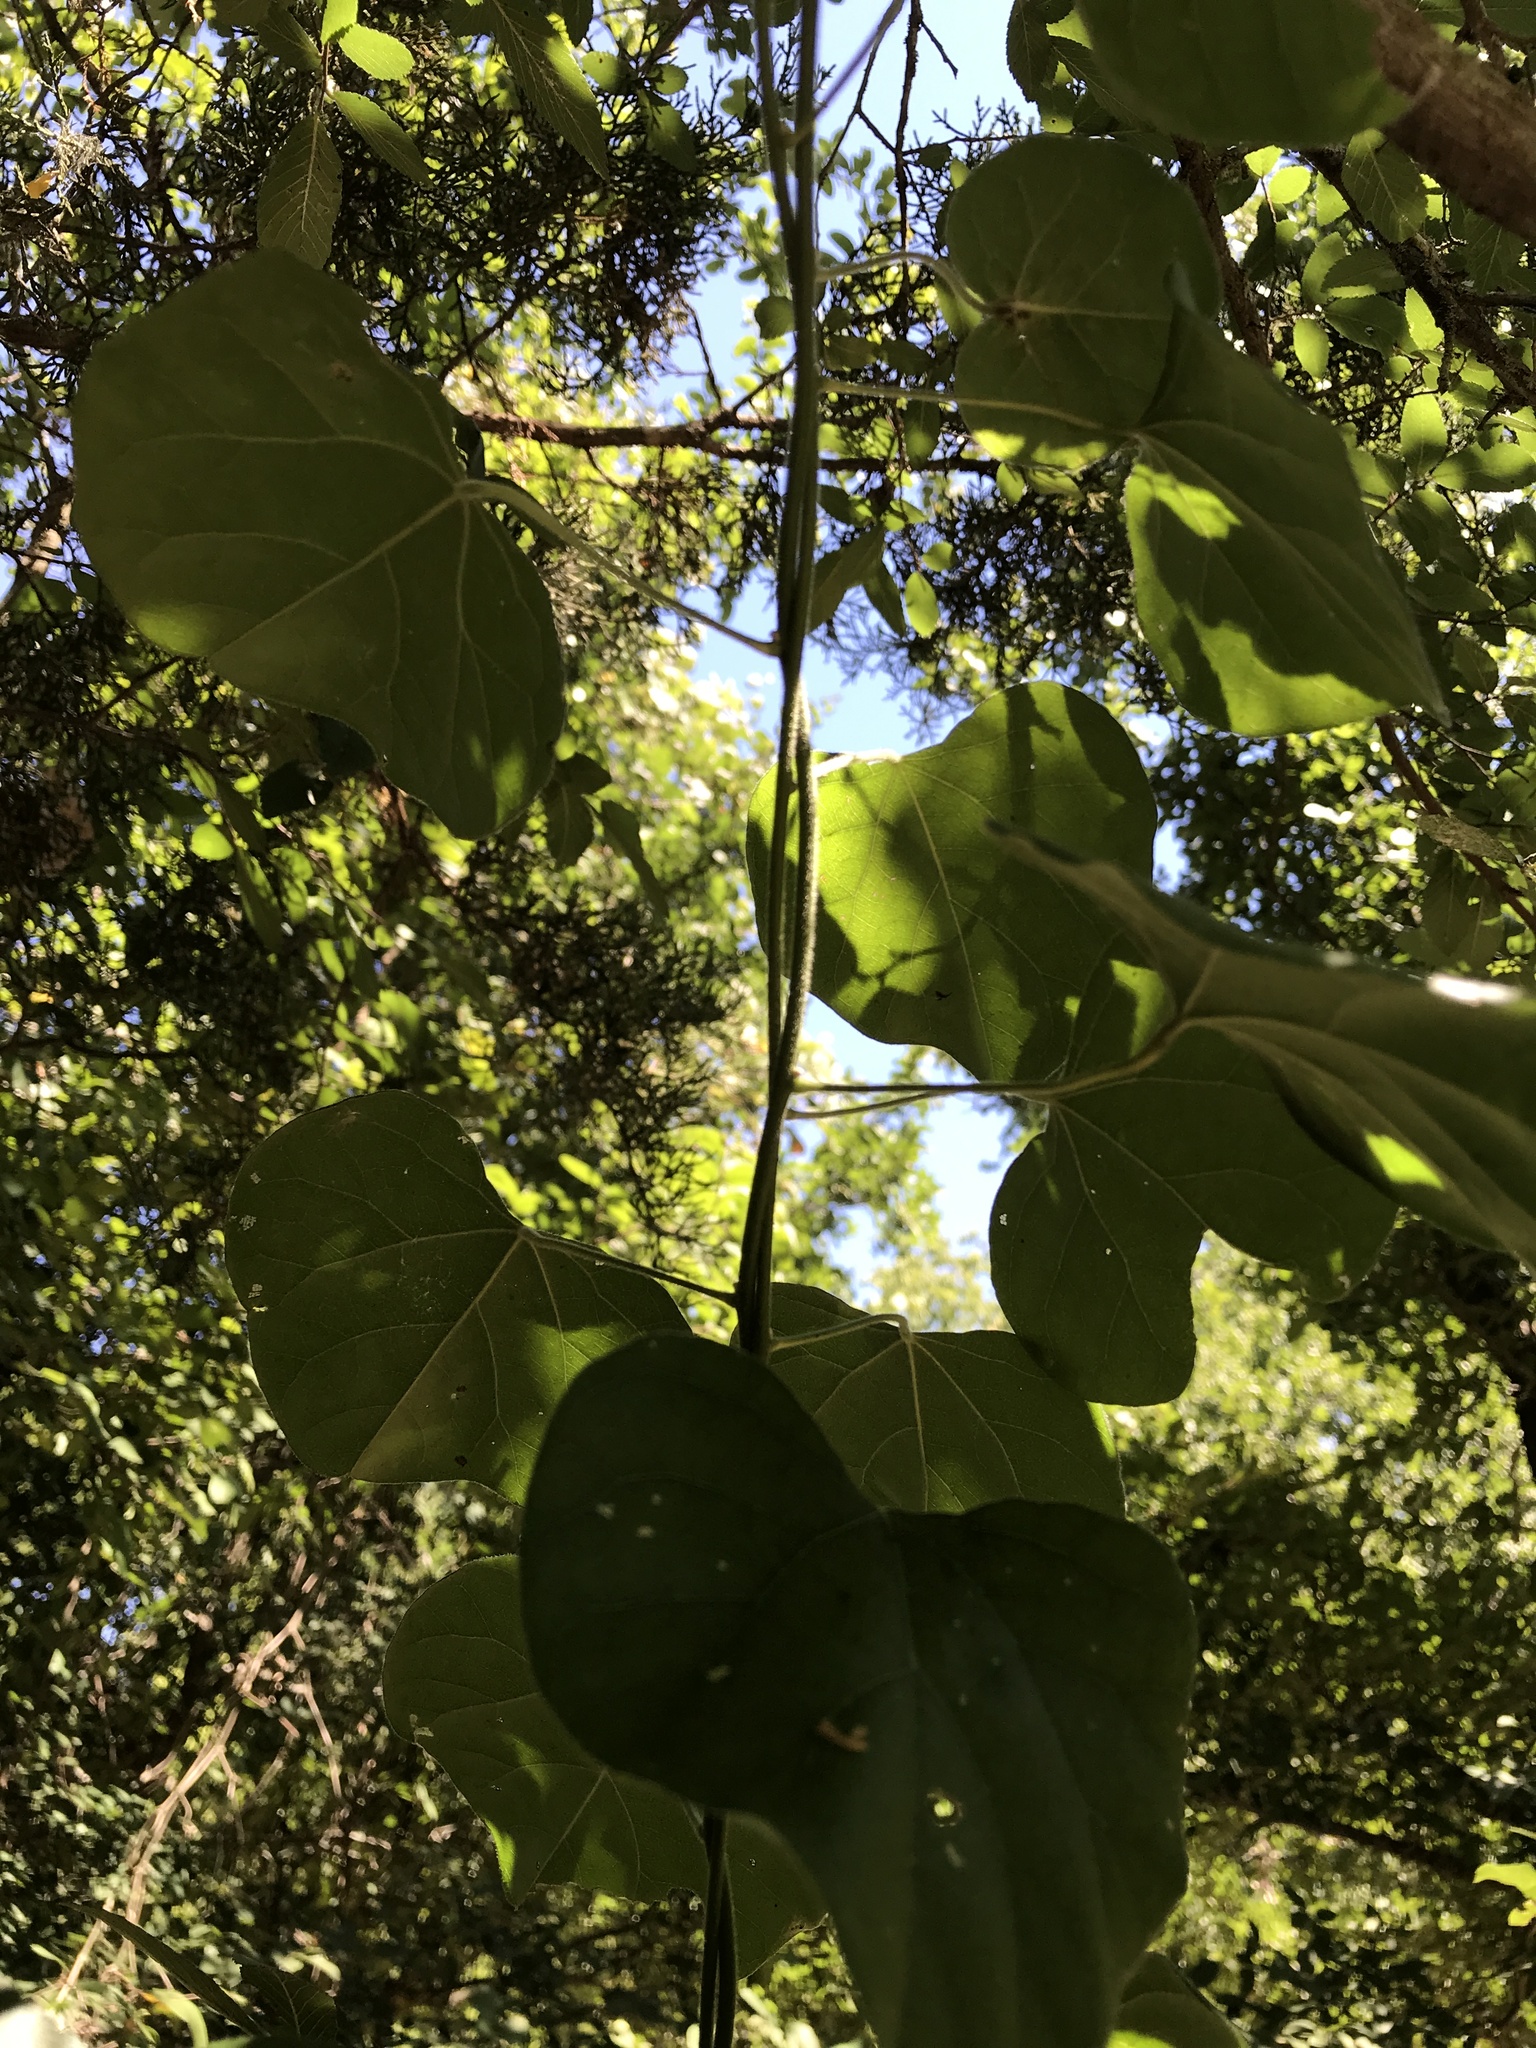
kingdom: Plantae
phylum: Tracheophyta
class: Magnoliopsida
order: Ranunculales
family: Menispermaceae
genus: Cocculus
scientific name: Cocculus carolinus
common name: Carolina moonseed
